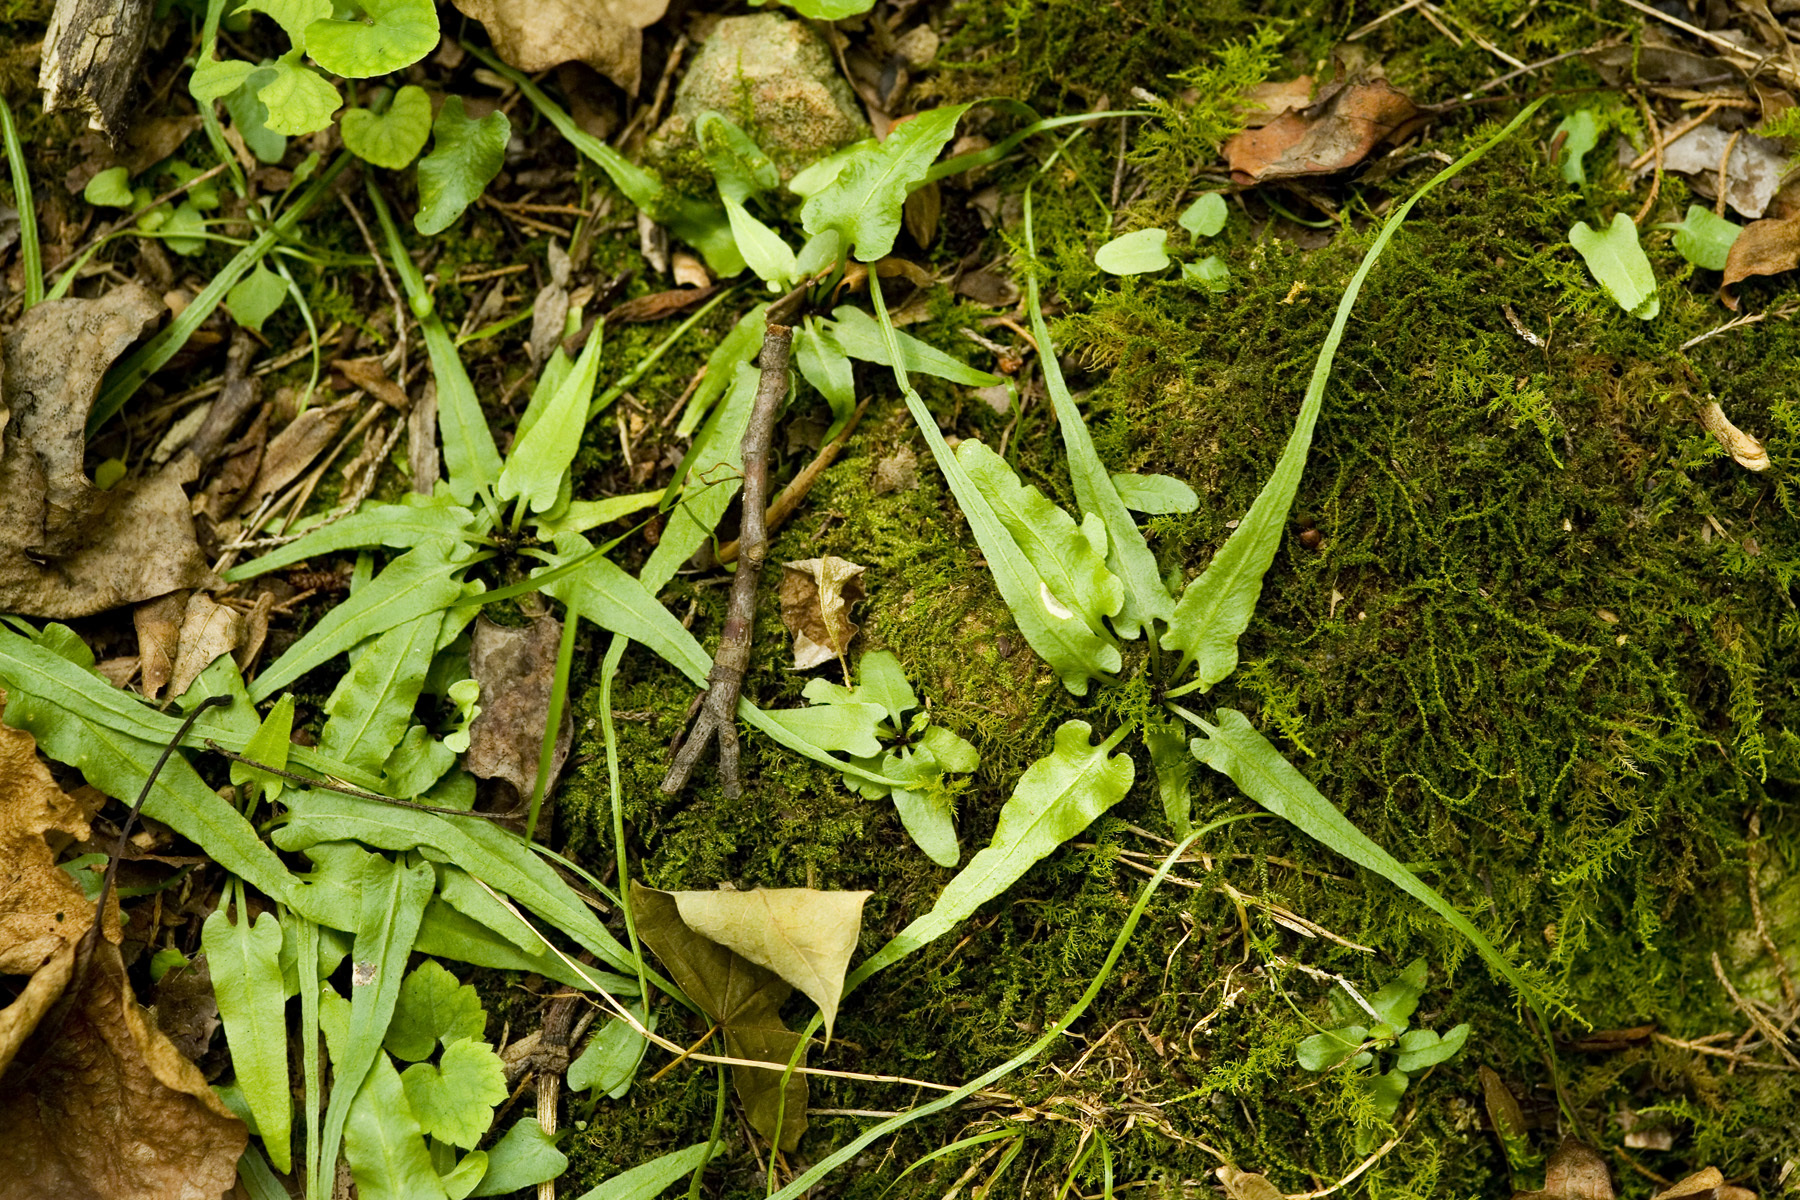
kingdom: Plantae
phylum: Tracheophyta
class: Polypodiopsida
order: Polypodiales
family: Aspleniaceae
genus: Asplenium
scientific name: Asplenium rhizophyllum
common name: Walking fern
